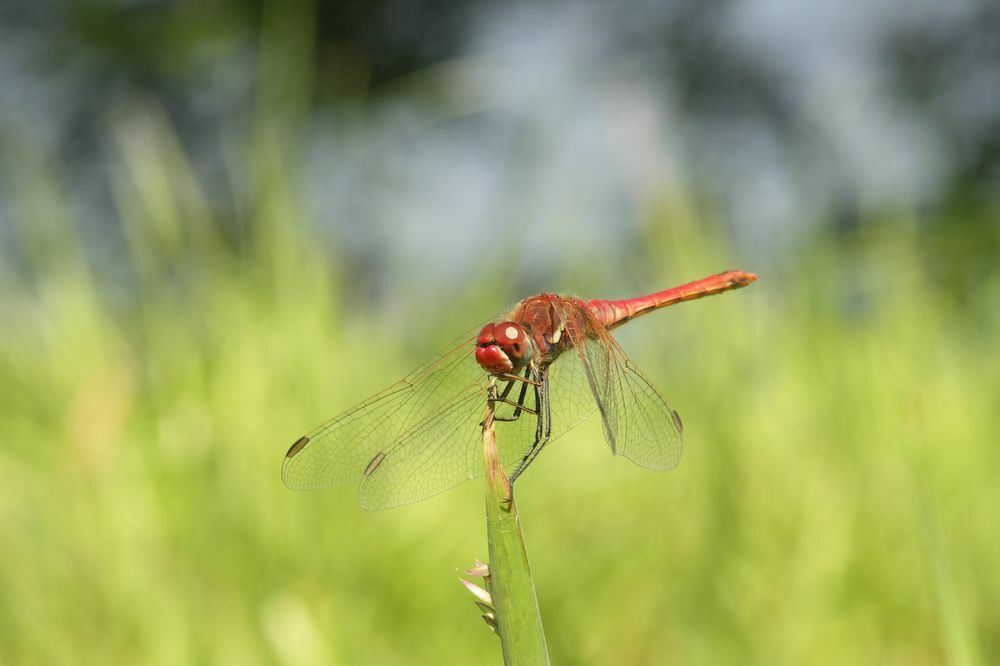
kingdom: Animalia
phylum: Arthropoda
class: Insecta
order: Odonata
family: Libellulidae
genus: Sympetrum
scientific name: Sympetrum fonscolombii
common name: Red-veined darter
